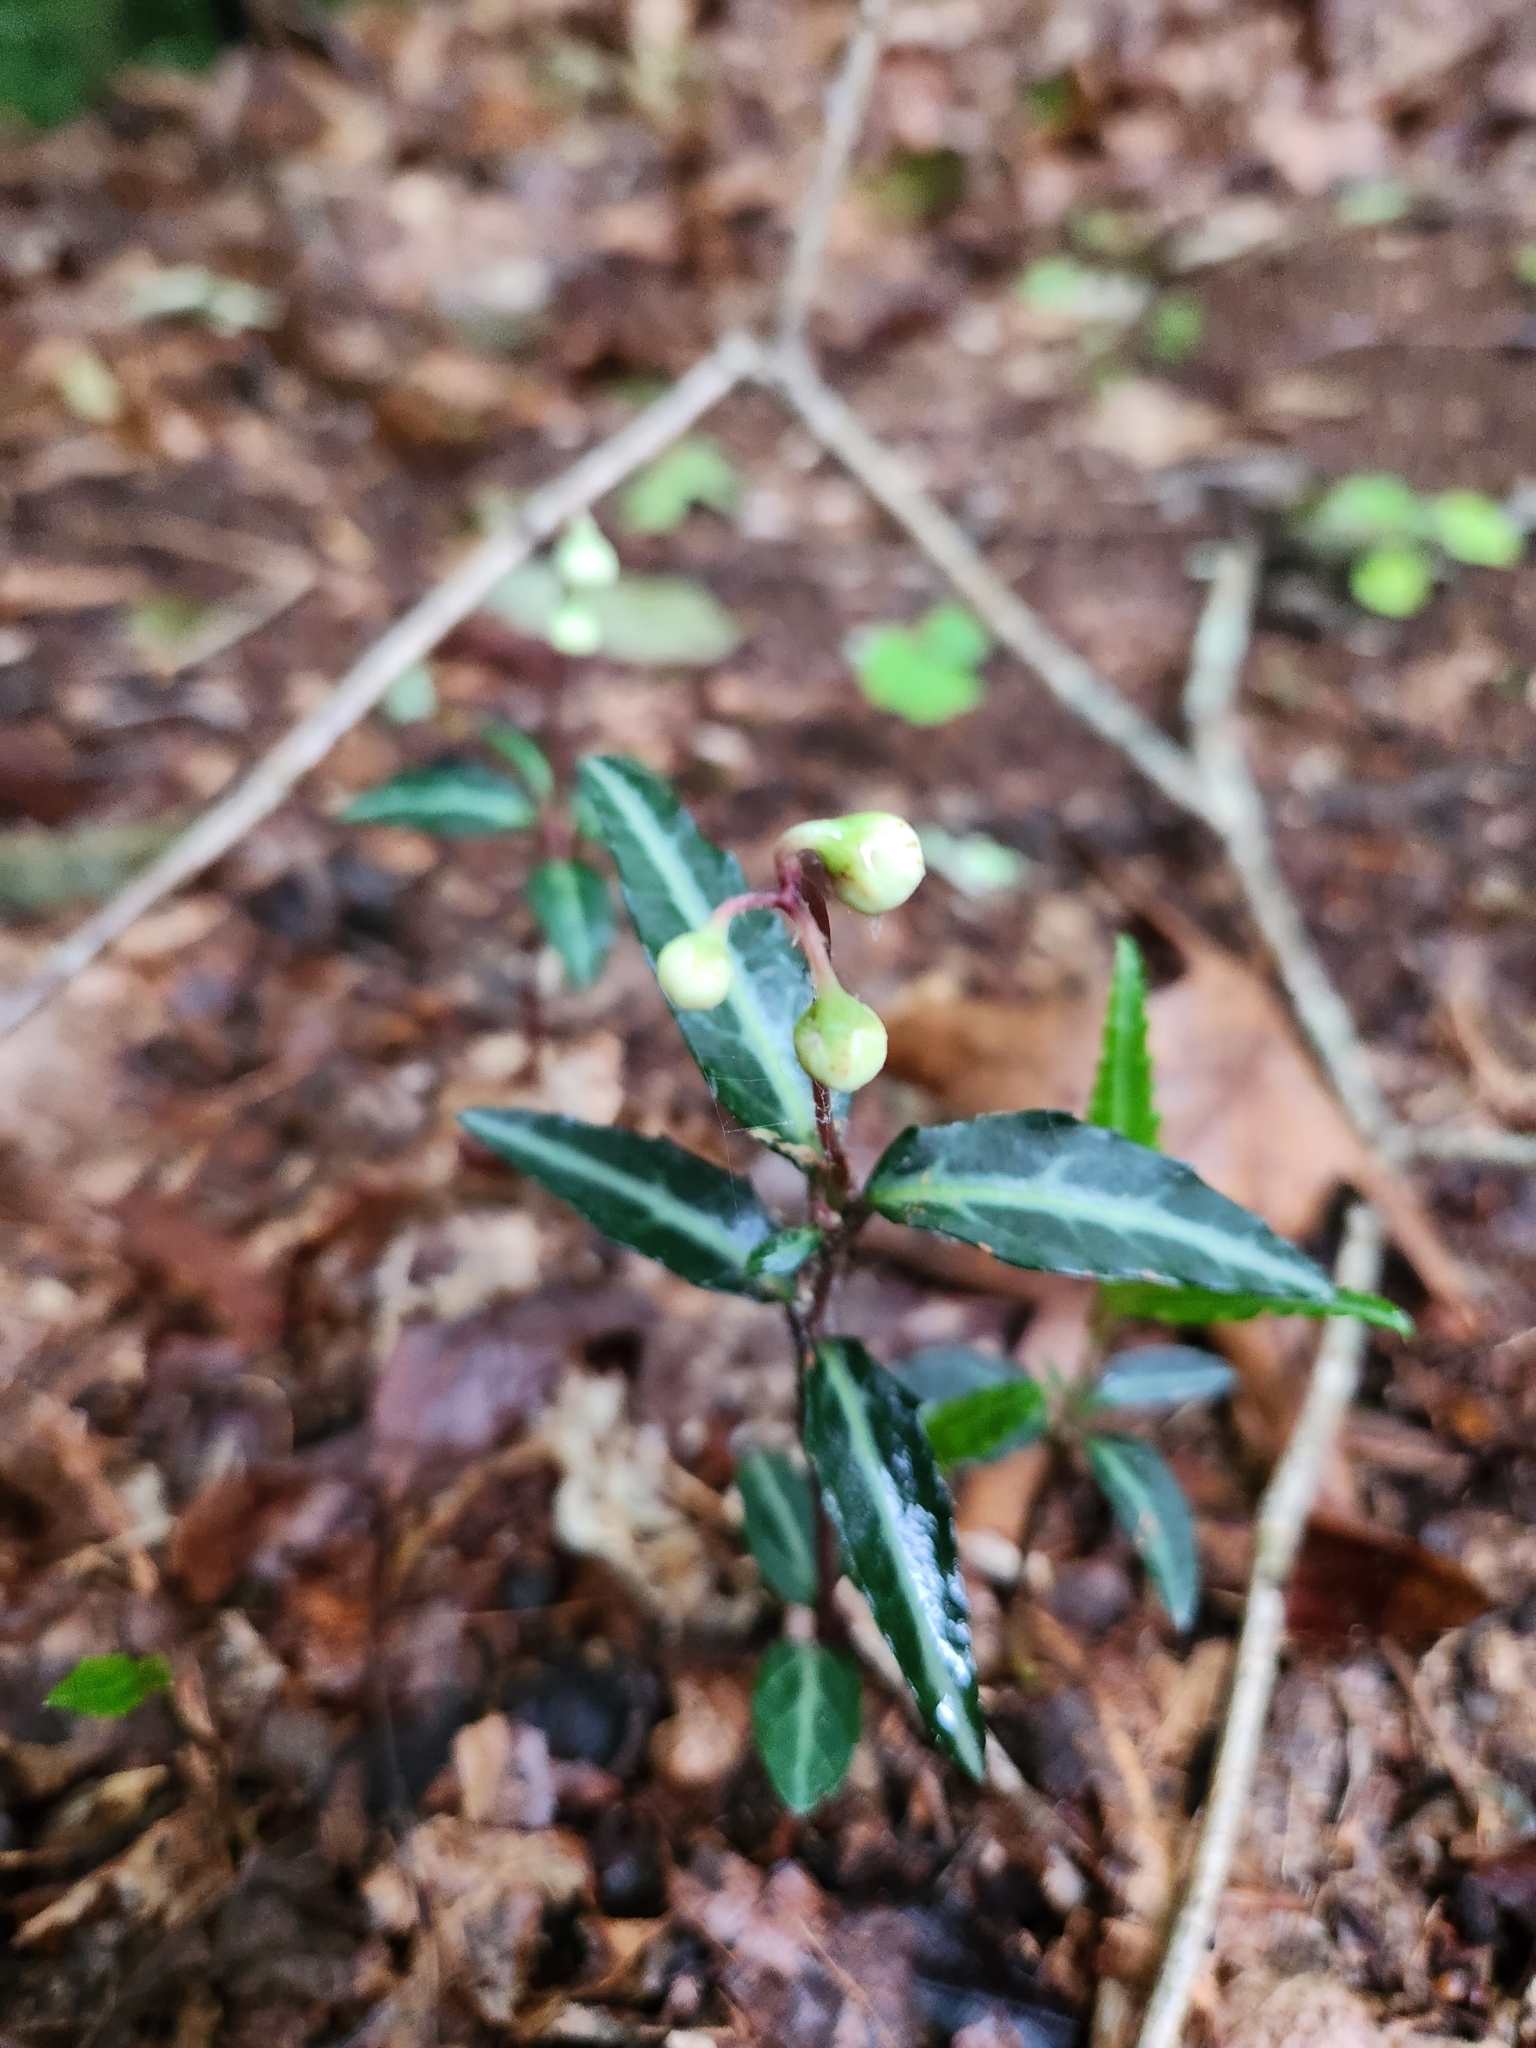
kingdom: Plantae
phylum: Tracheophyta
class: Magnoliopsida
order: Ericales
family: Ericaceae
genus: Chimaphila
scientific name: Chimaphila maculata
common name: Spotted pipsissewa
